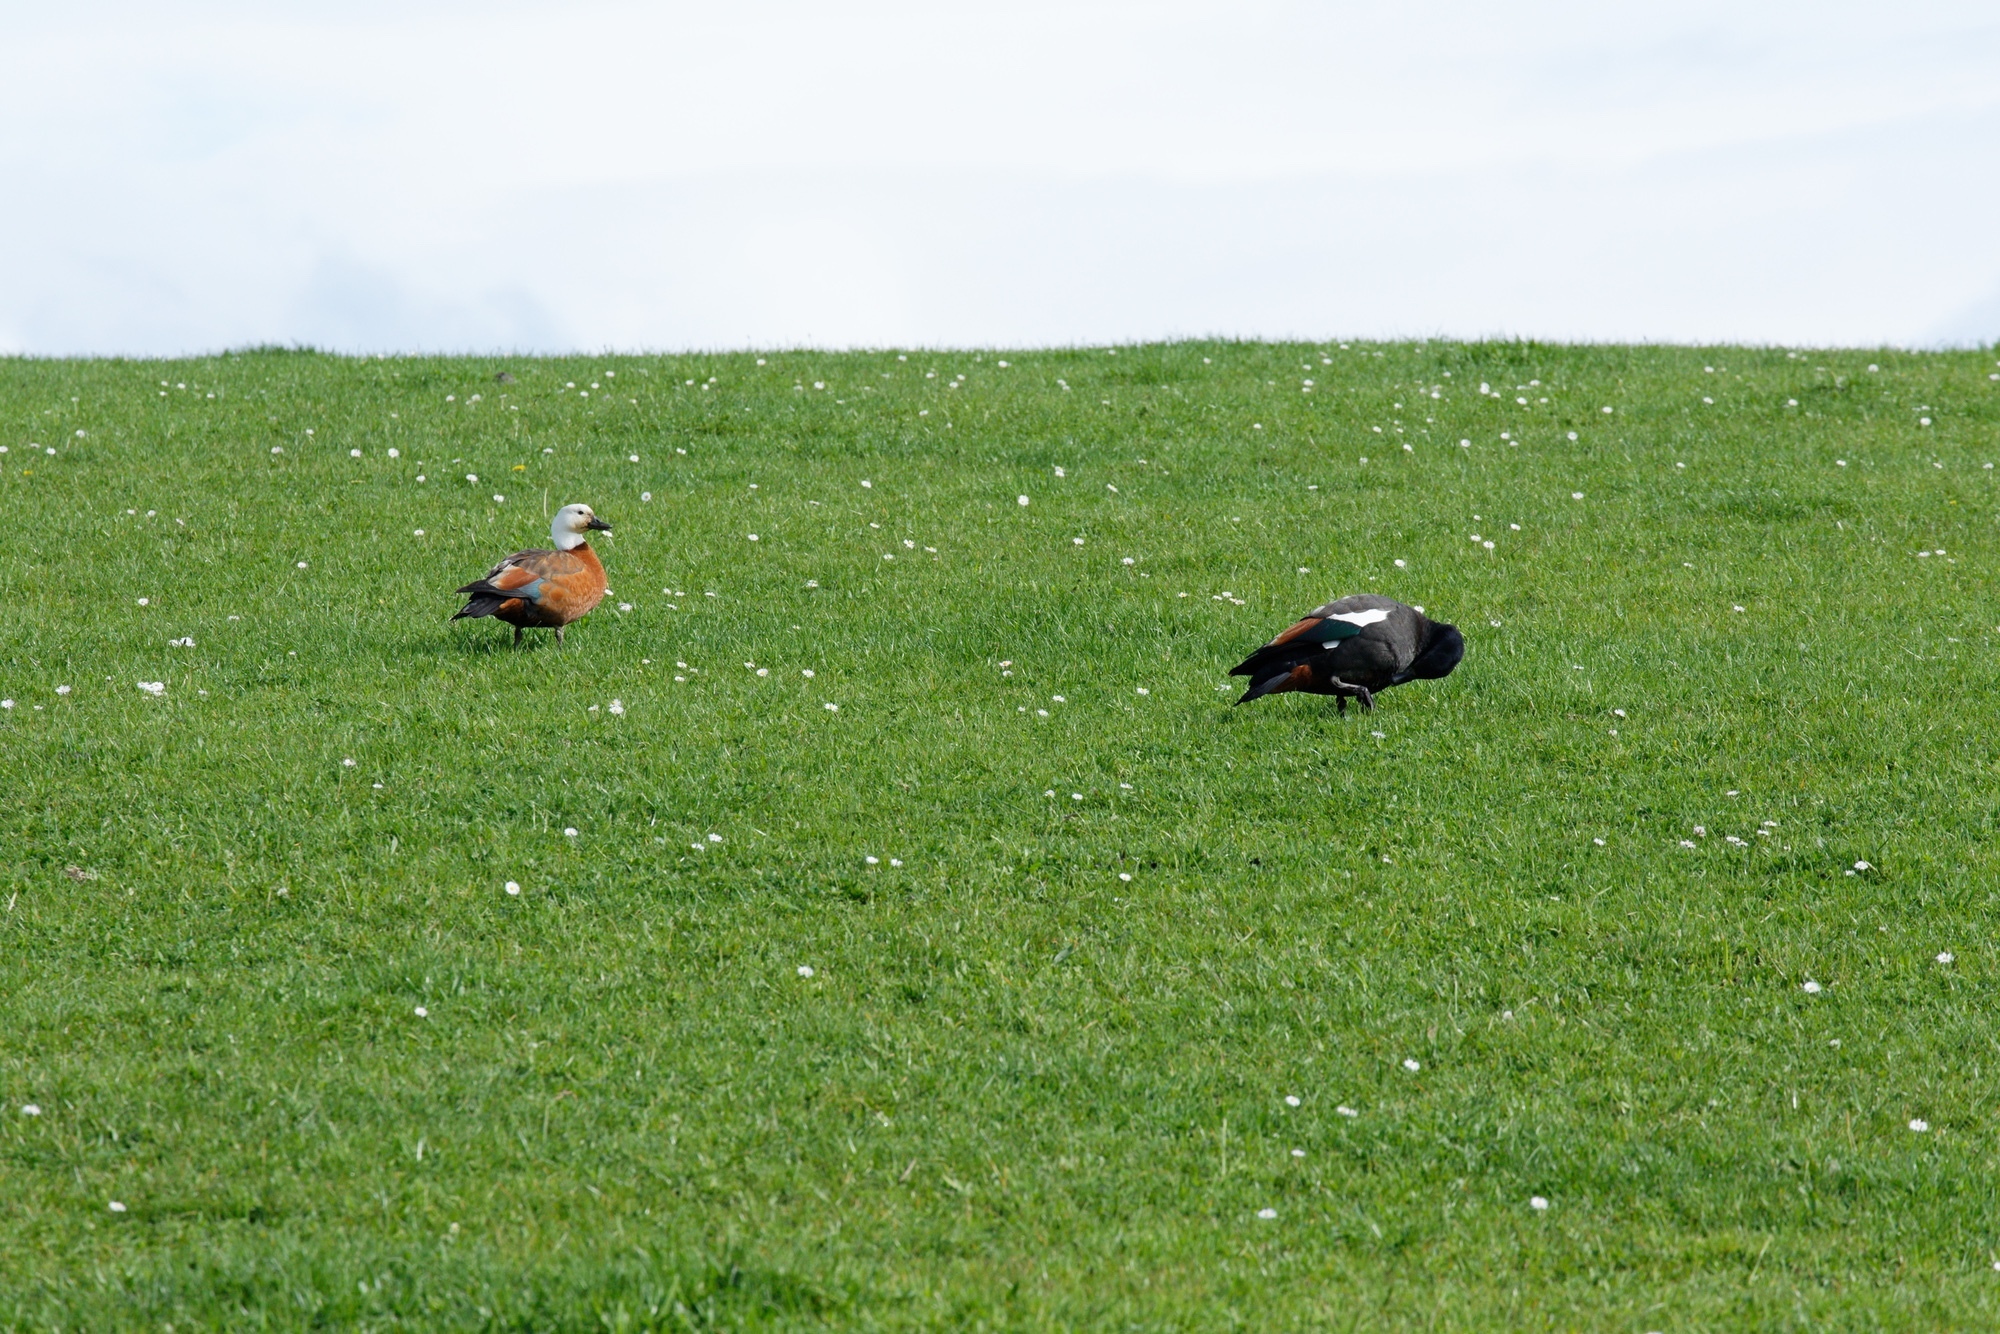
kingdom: Animalia
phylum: Chordata
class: Aves
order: Anseriformes
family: Anatidae
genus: Tadorna
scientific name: Tadorna variegata
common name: Paradise shelduck
